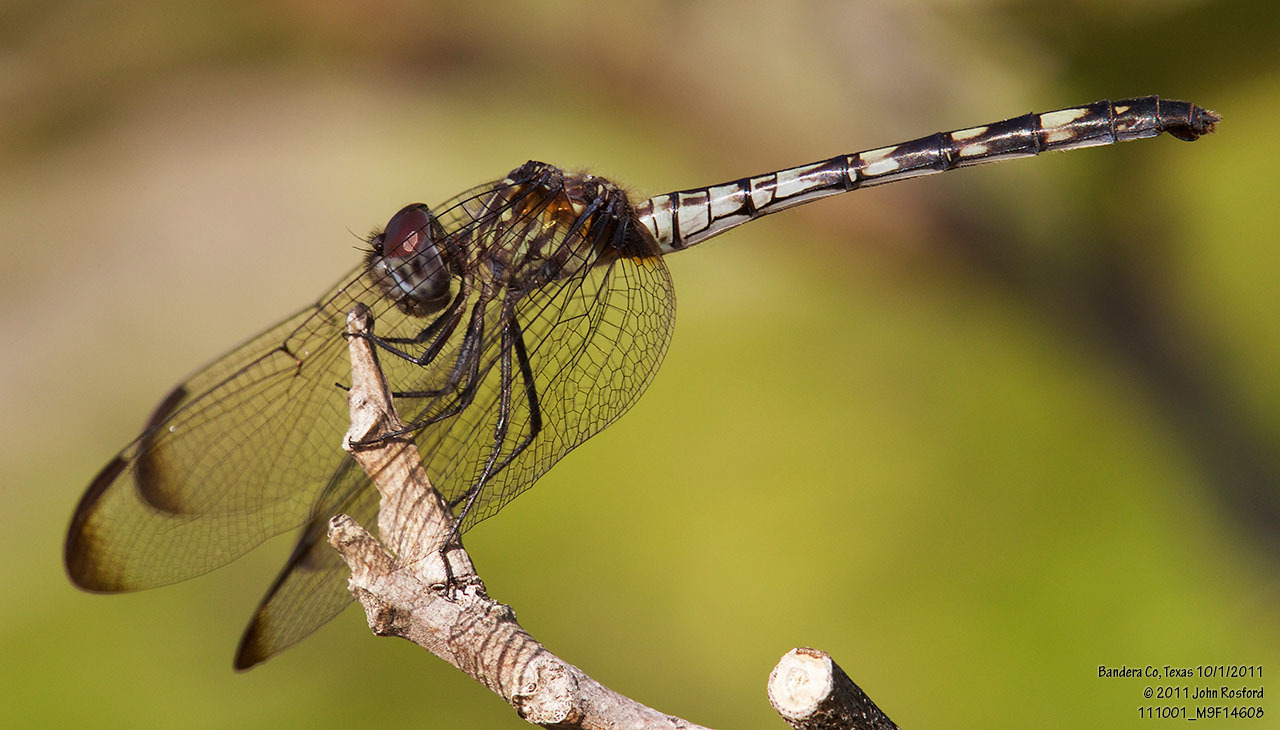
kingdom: Animalia
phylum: Arthropoda
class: Insecta
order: Odonata
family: Libellulidae
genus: Dythemis
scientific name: Dythemis nigrescens
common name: Black setwing
